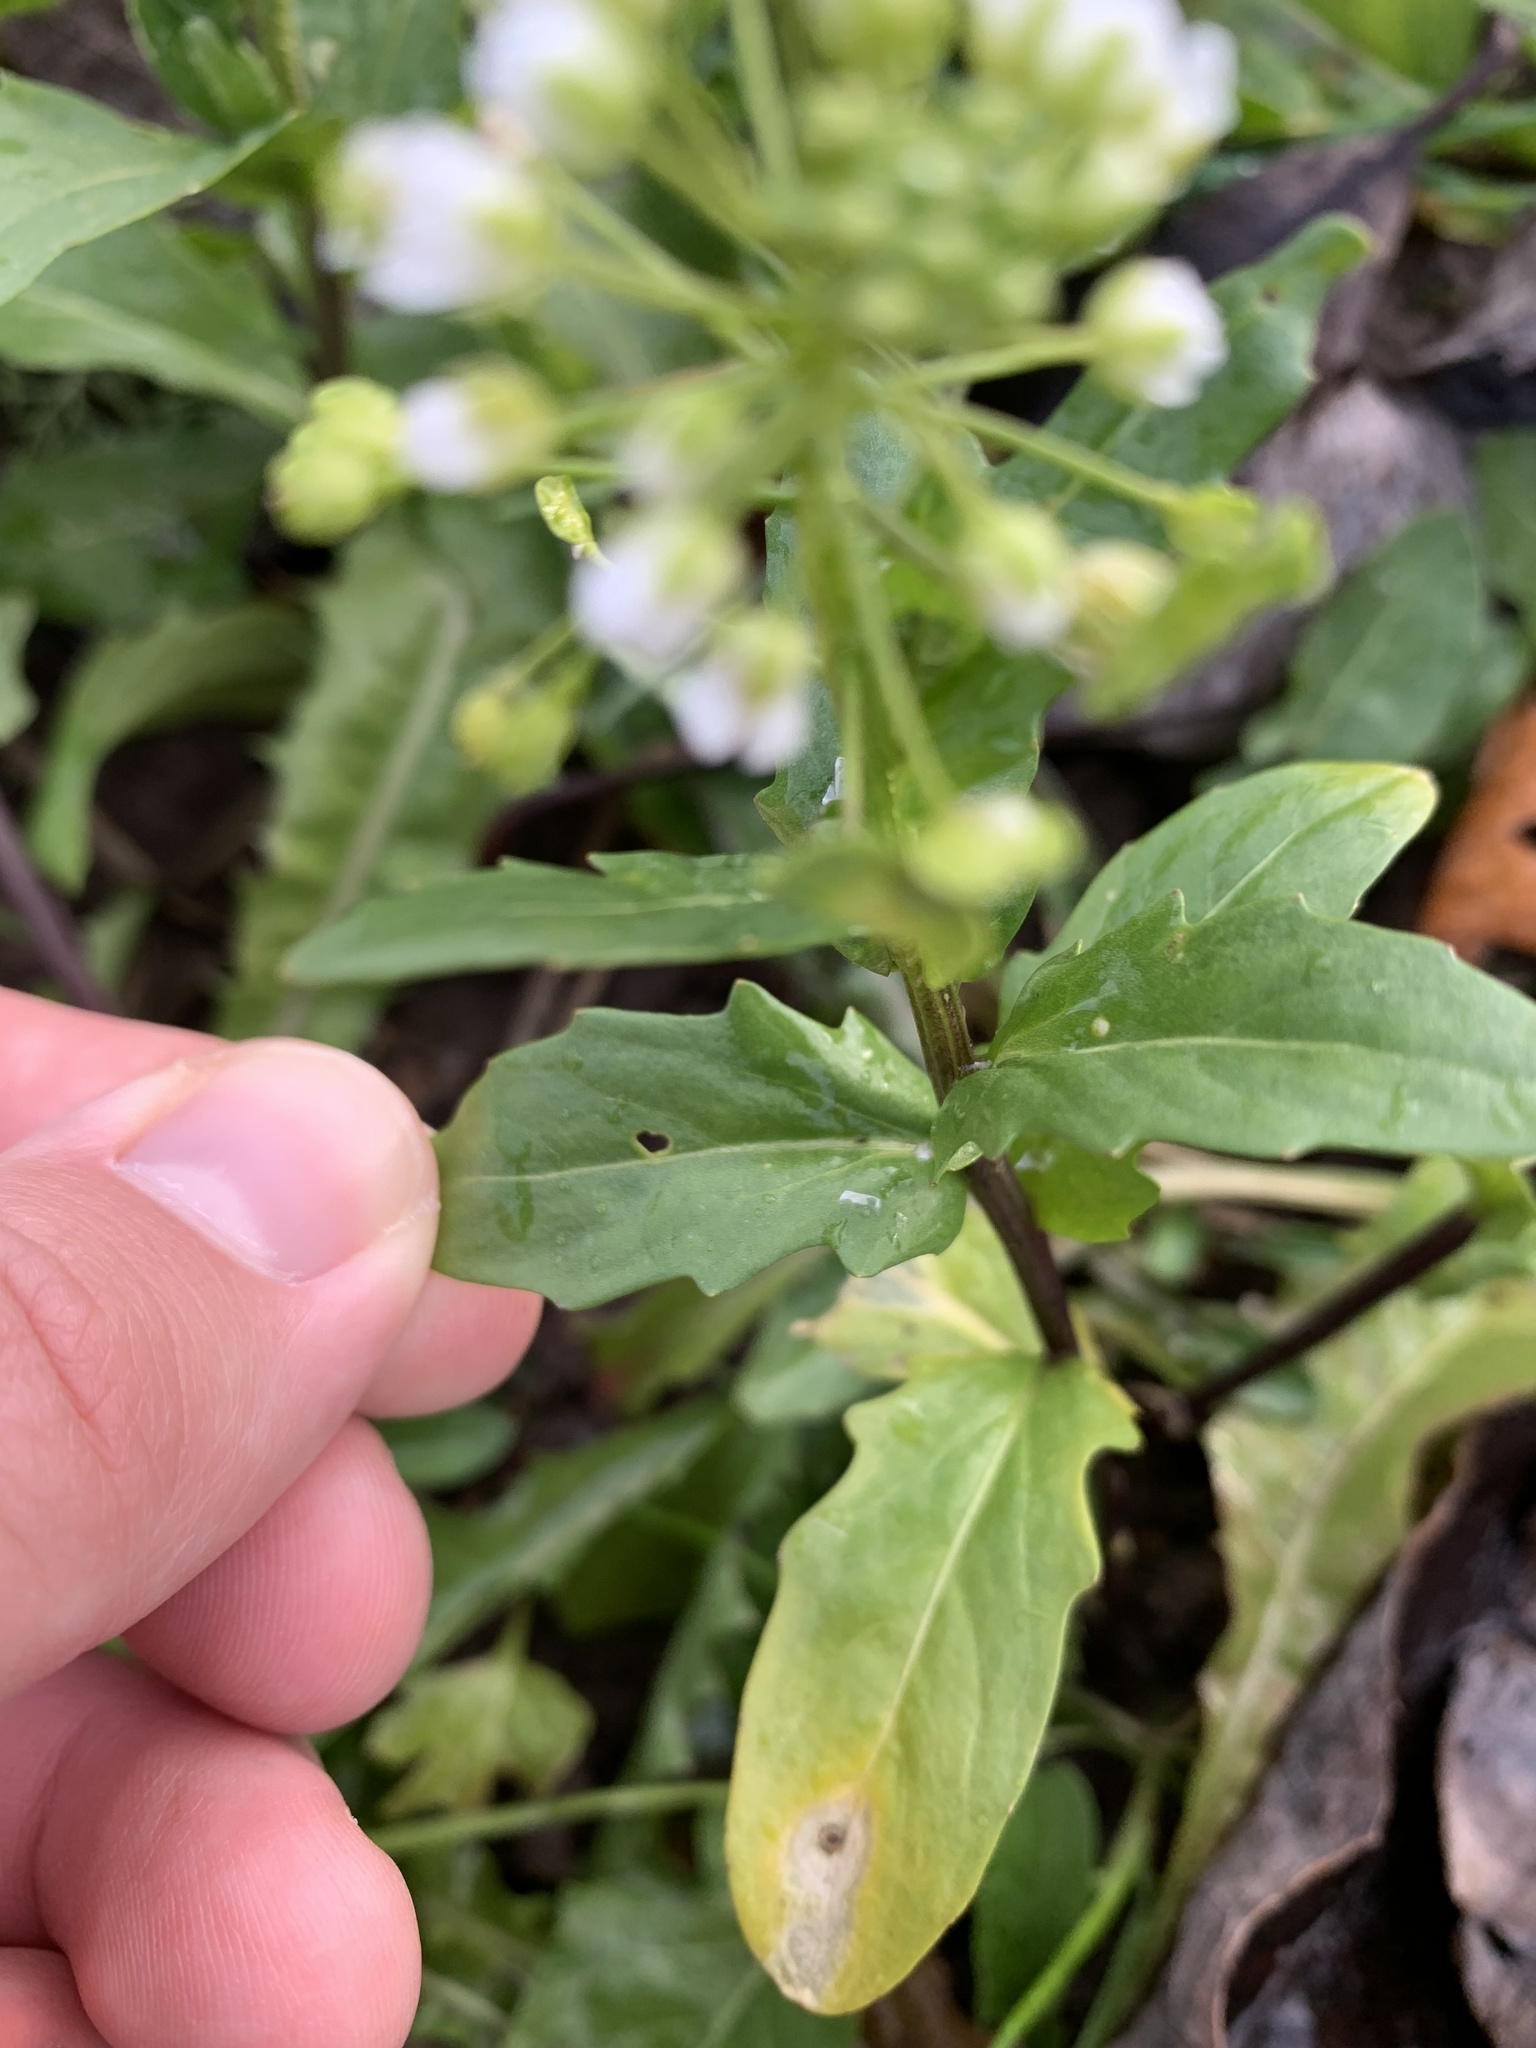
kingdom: Plantae
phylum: Tracheophyta
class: Magnoliopsida
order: Brassicales
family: Brassicaceae
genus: Thlaspi
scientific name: Thlaspi arvense
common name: Field pennycress
